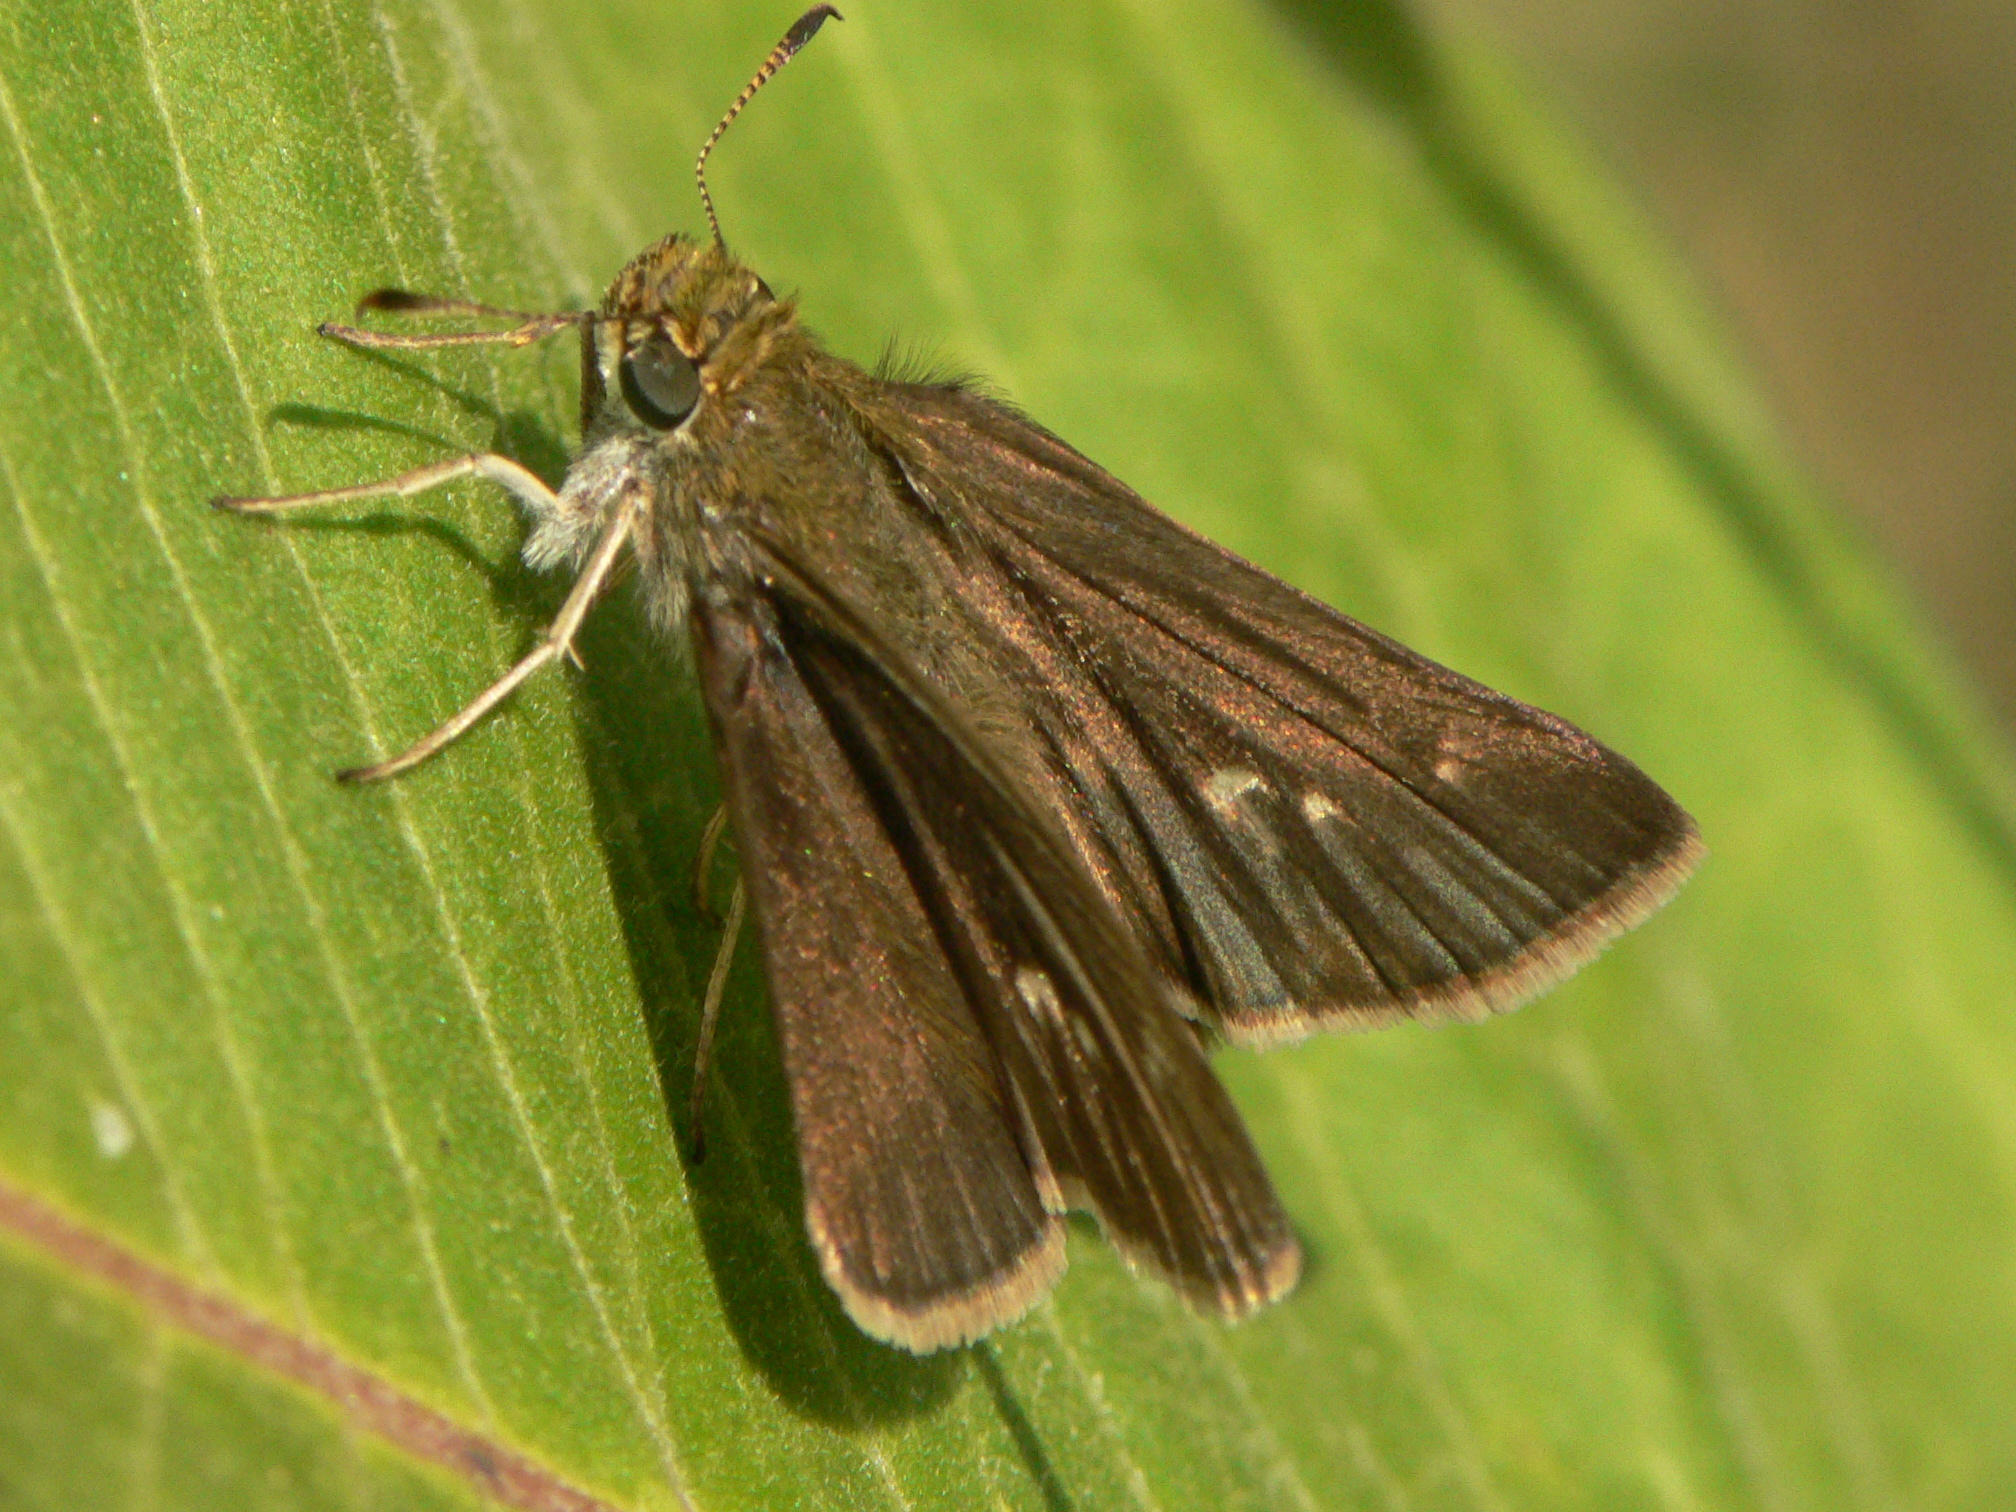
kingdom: Animalia
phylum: Arthropoda
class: Insecta
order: Lepidoptera
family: Hesperiidae
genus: Euphyes
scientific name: Euphyes vestris
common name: Dun skipper
